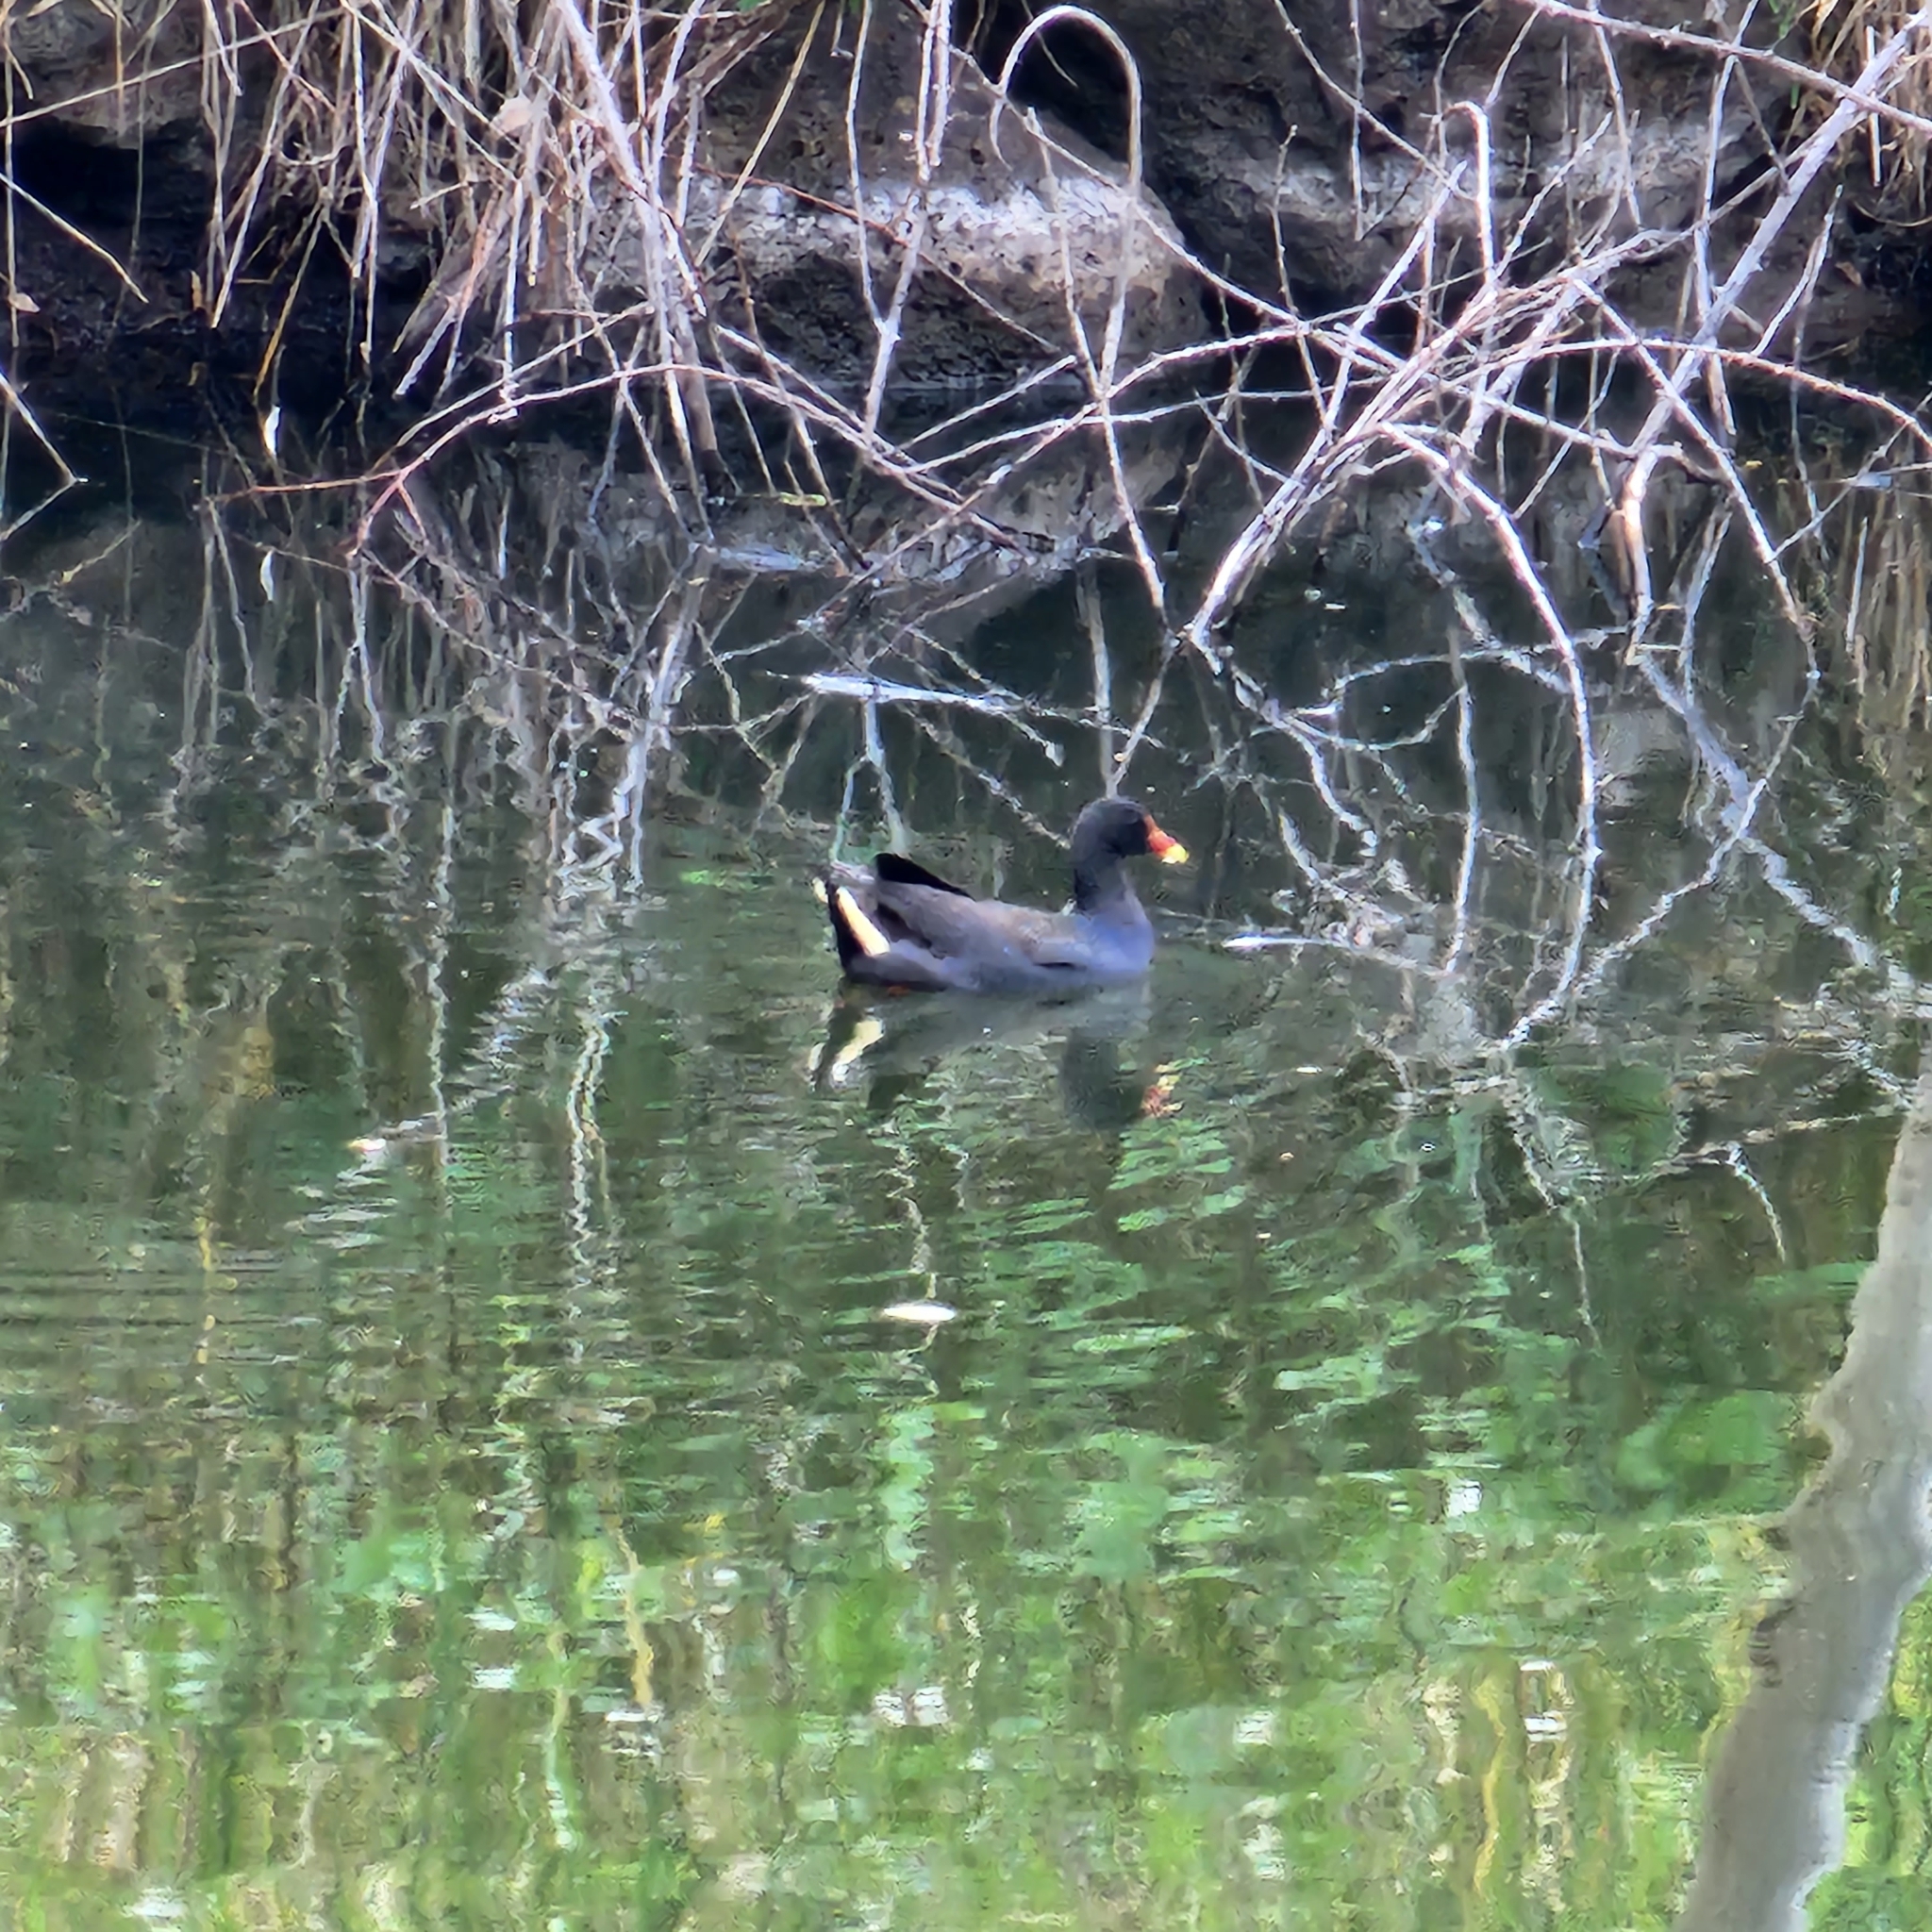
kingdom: Animalia
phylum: Chordata
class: Aves
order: Gruiformes
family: Rallidae
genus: Gallinula
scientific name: Gallinula tenebrosa
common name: Dusky moorhen
